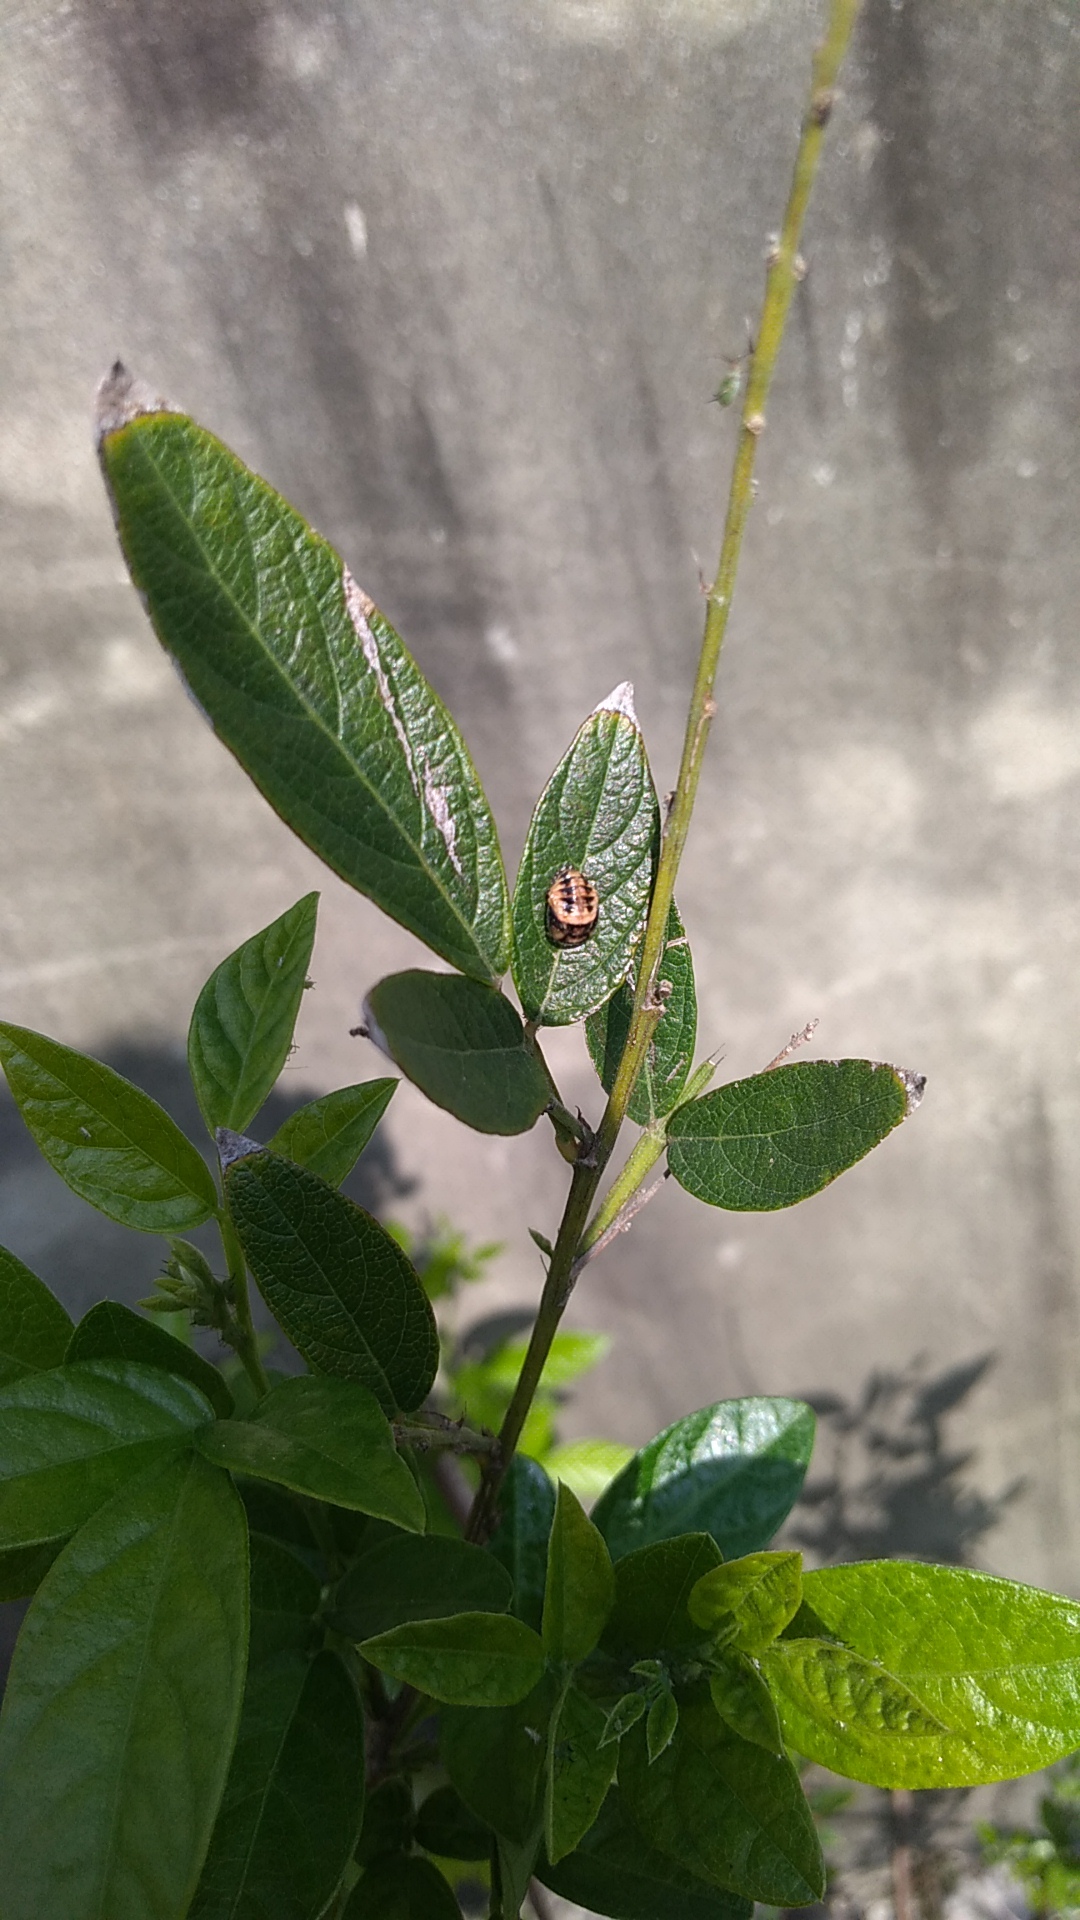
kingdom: Animalia
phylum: Arthropoda
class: Insecta
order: Coleoptera
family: Coccinellidae
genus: Cheilomenes
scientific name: Cheilomenes sexmaculata
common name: Ladybird beetle
